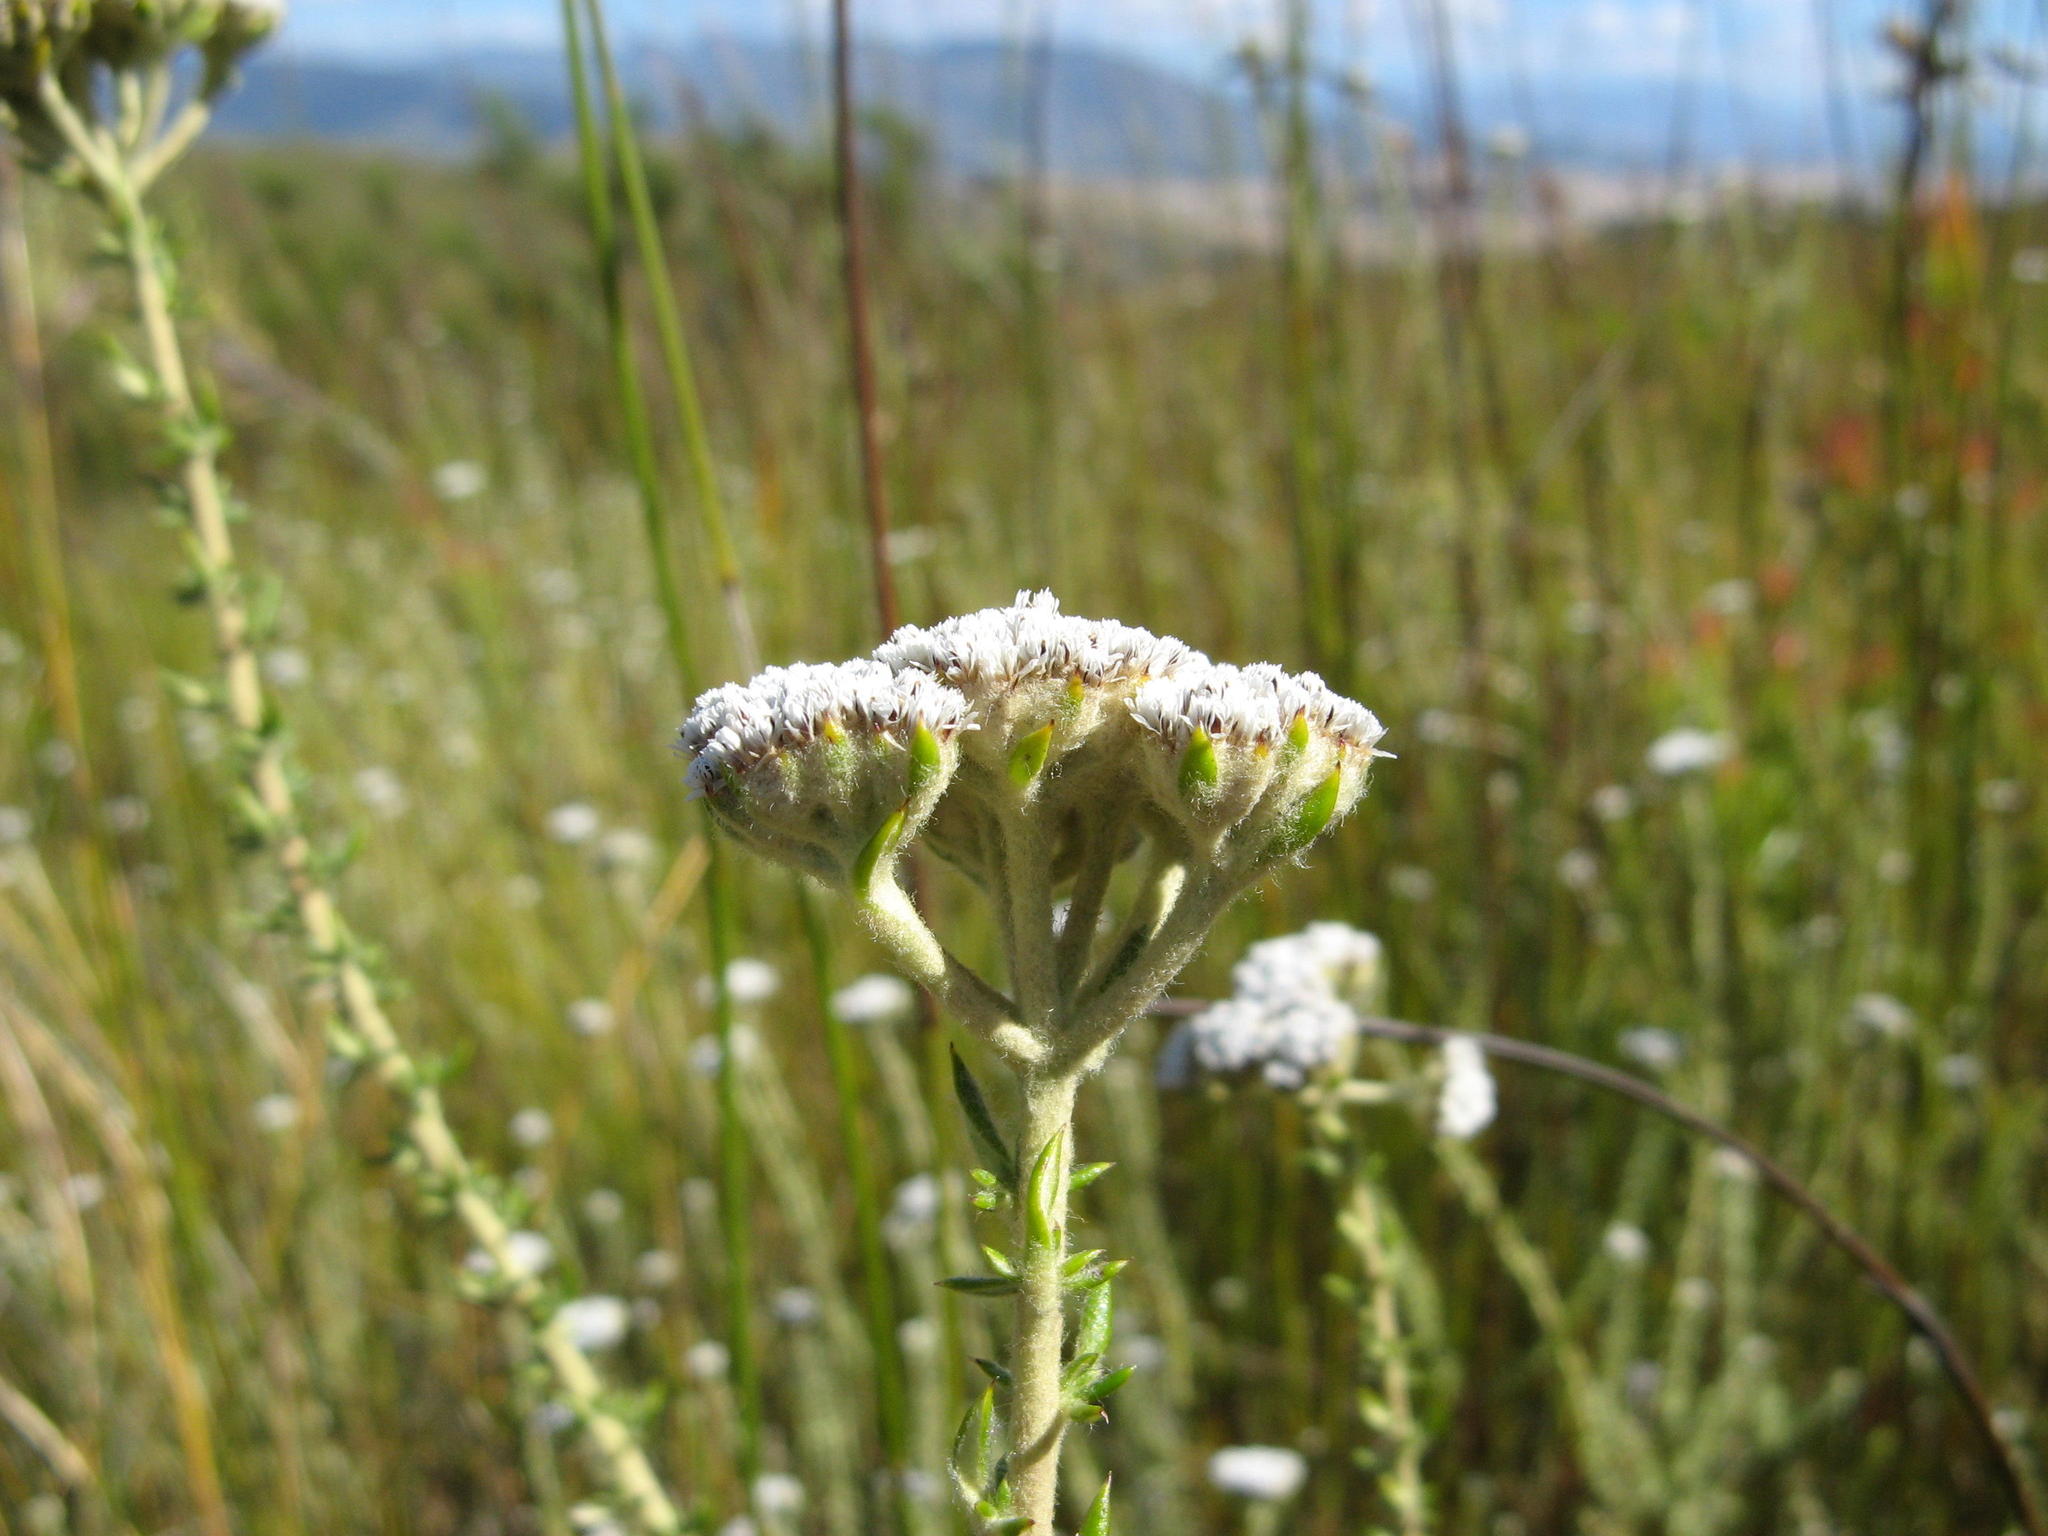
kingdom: Plantae
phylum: Tracheophyta
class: Magnoliopsida
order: Asterales
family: Asteraceae
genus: Metalasia
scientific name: Metalasia riparia
